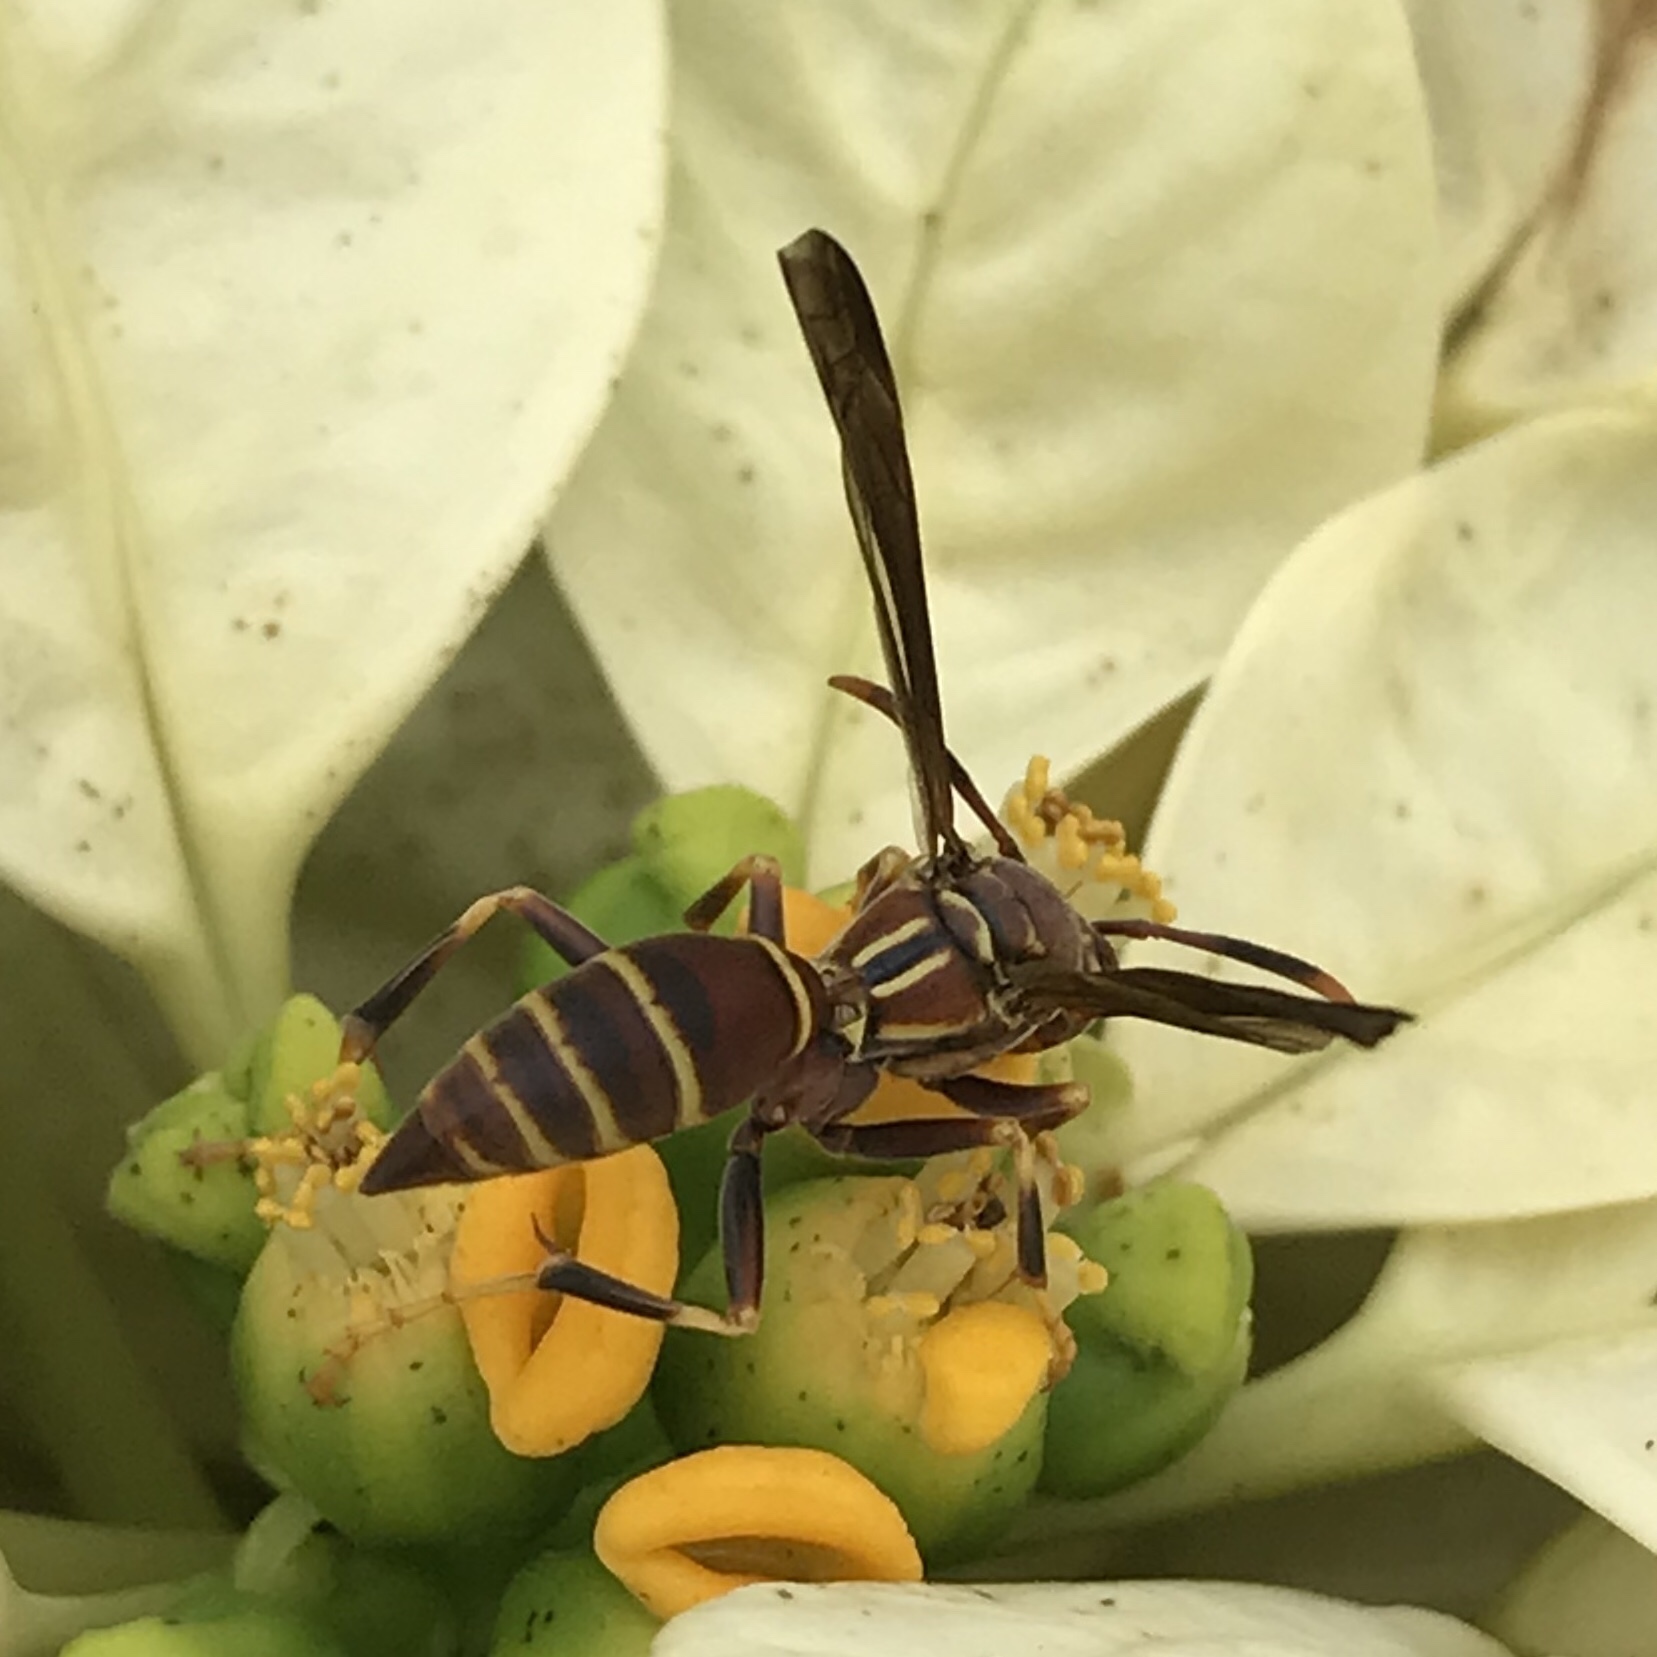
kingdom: Animalia
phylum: Arthropoda
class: Insecta
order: Hymenoptera
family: Pompilidae
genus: Aphanilopterus
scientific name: Aphanilopterus
